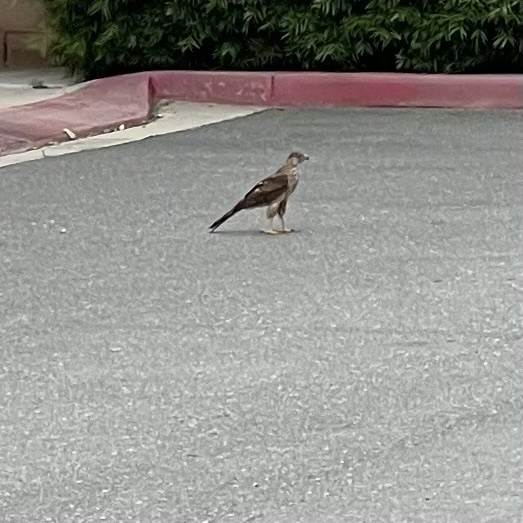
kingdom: Animalia
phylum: Chordata
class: Aves
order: Accipitriformes
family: Accipitridae
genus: Accipiter
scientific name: Accipiter cooperii
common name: Cooper's hawk
